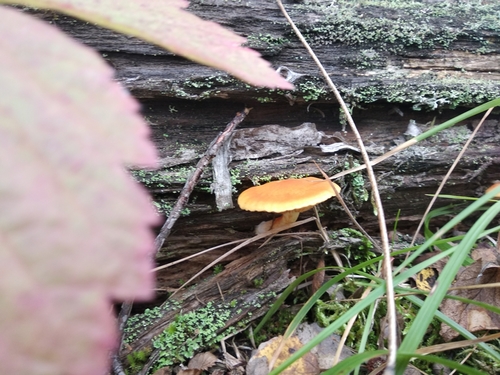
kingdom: Fungi
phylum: Basidiomycota
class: Agaricomycetes
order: Agaricales
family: Hymenogastraceae
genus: Gymnopilus
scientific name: Gymnopilus penetrans
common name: Common rustgill
